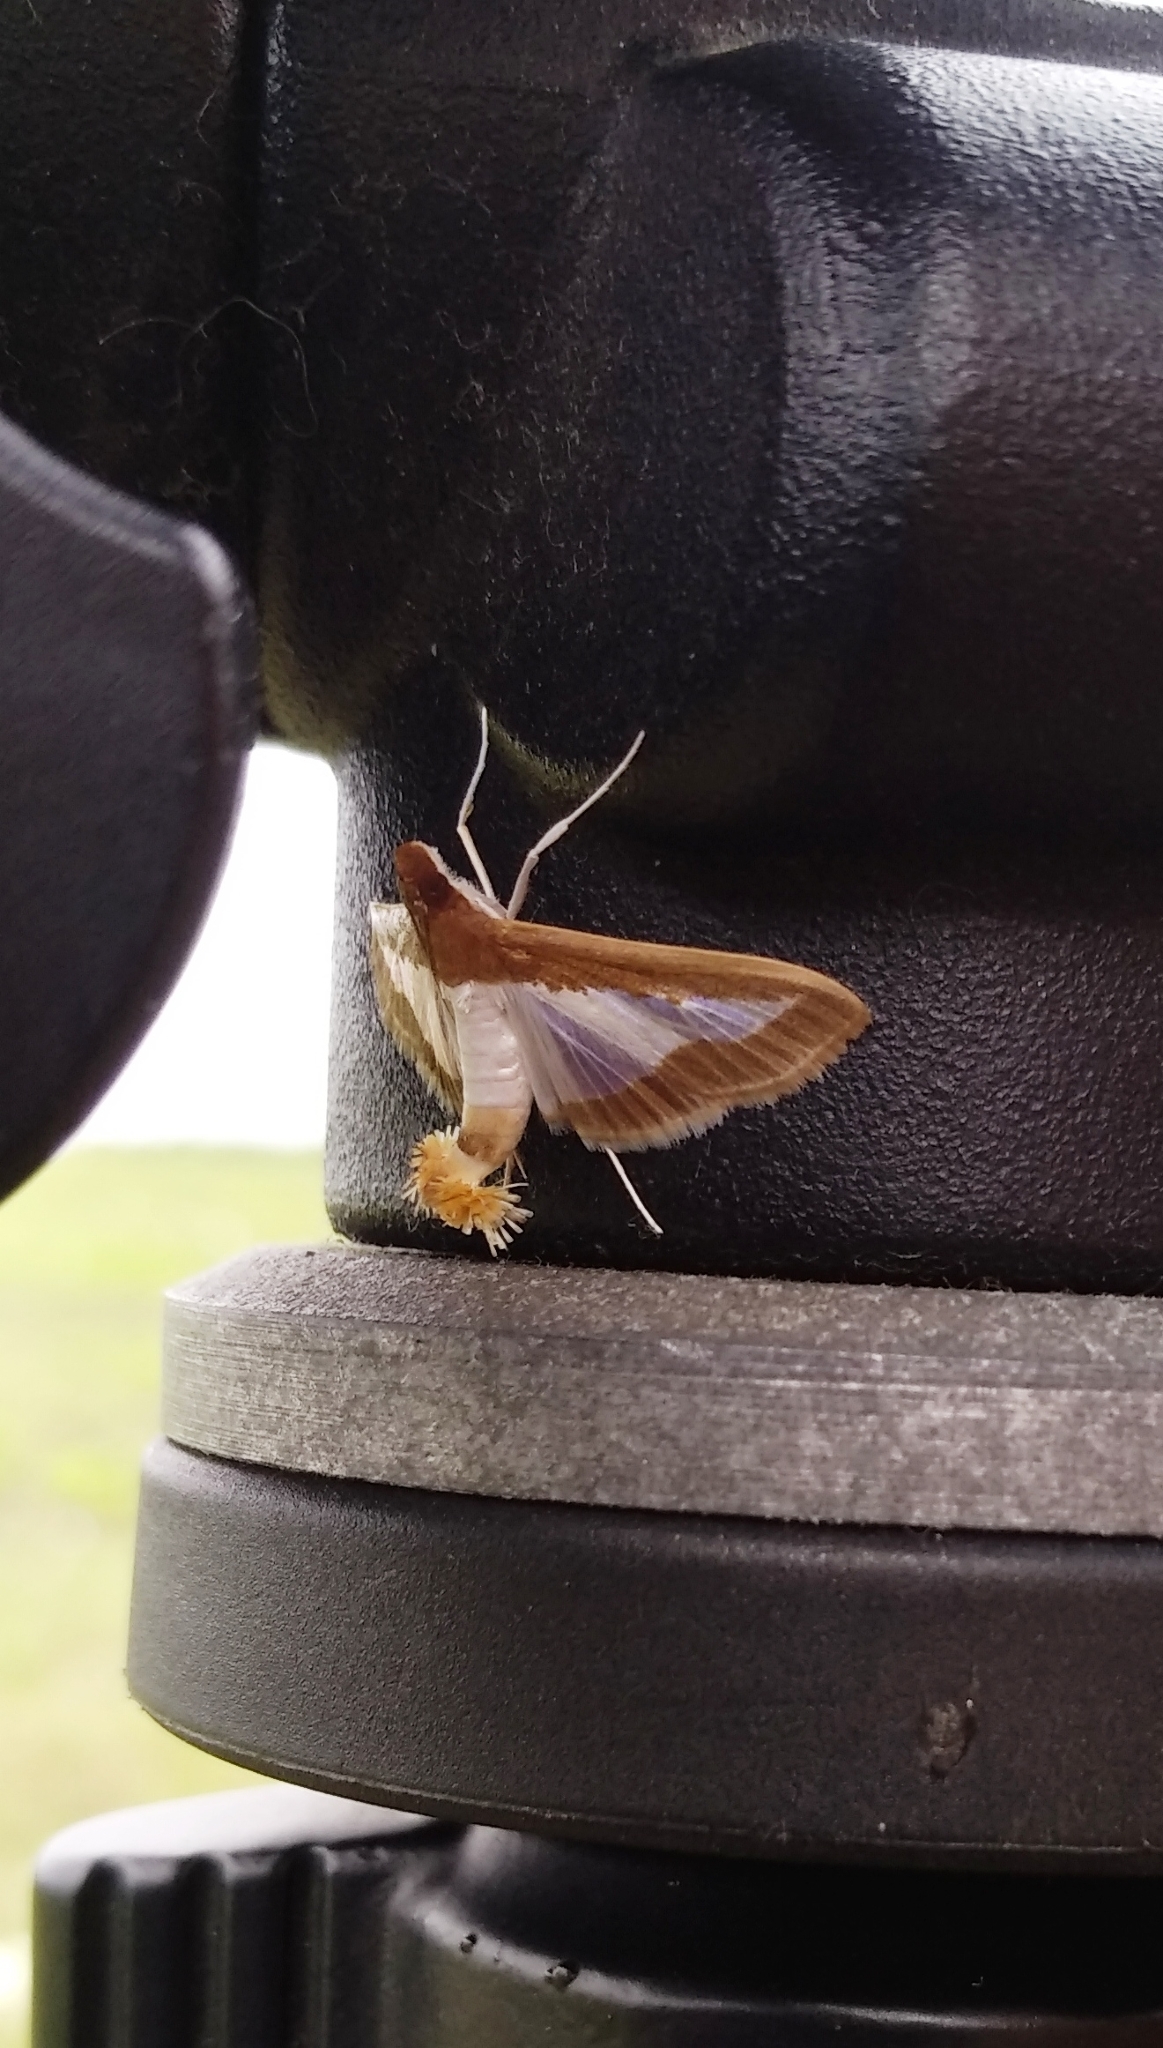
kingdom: Animalia
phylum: Arthropoda
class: Insecta
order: Lepidoptera
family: Crambidae
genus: Diaphania
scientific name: Diaphania indica
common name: Cucumber moth
